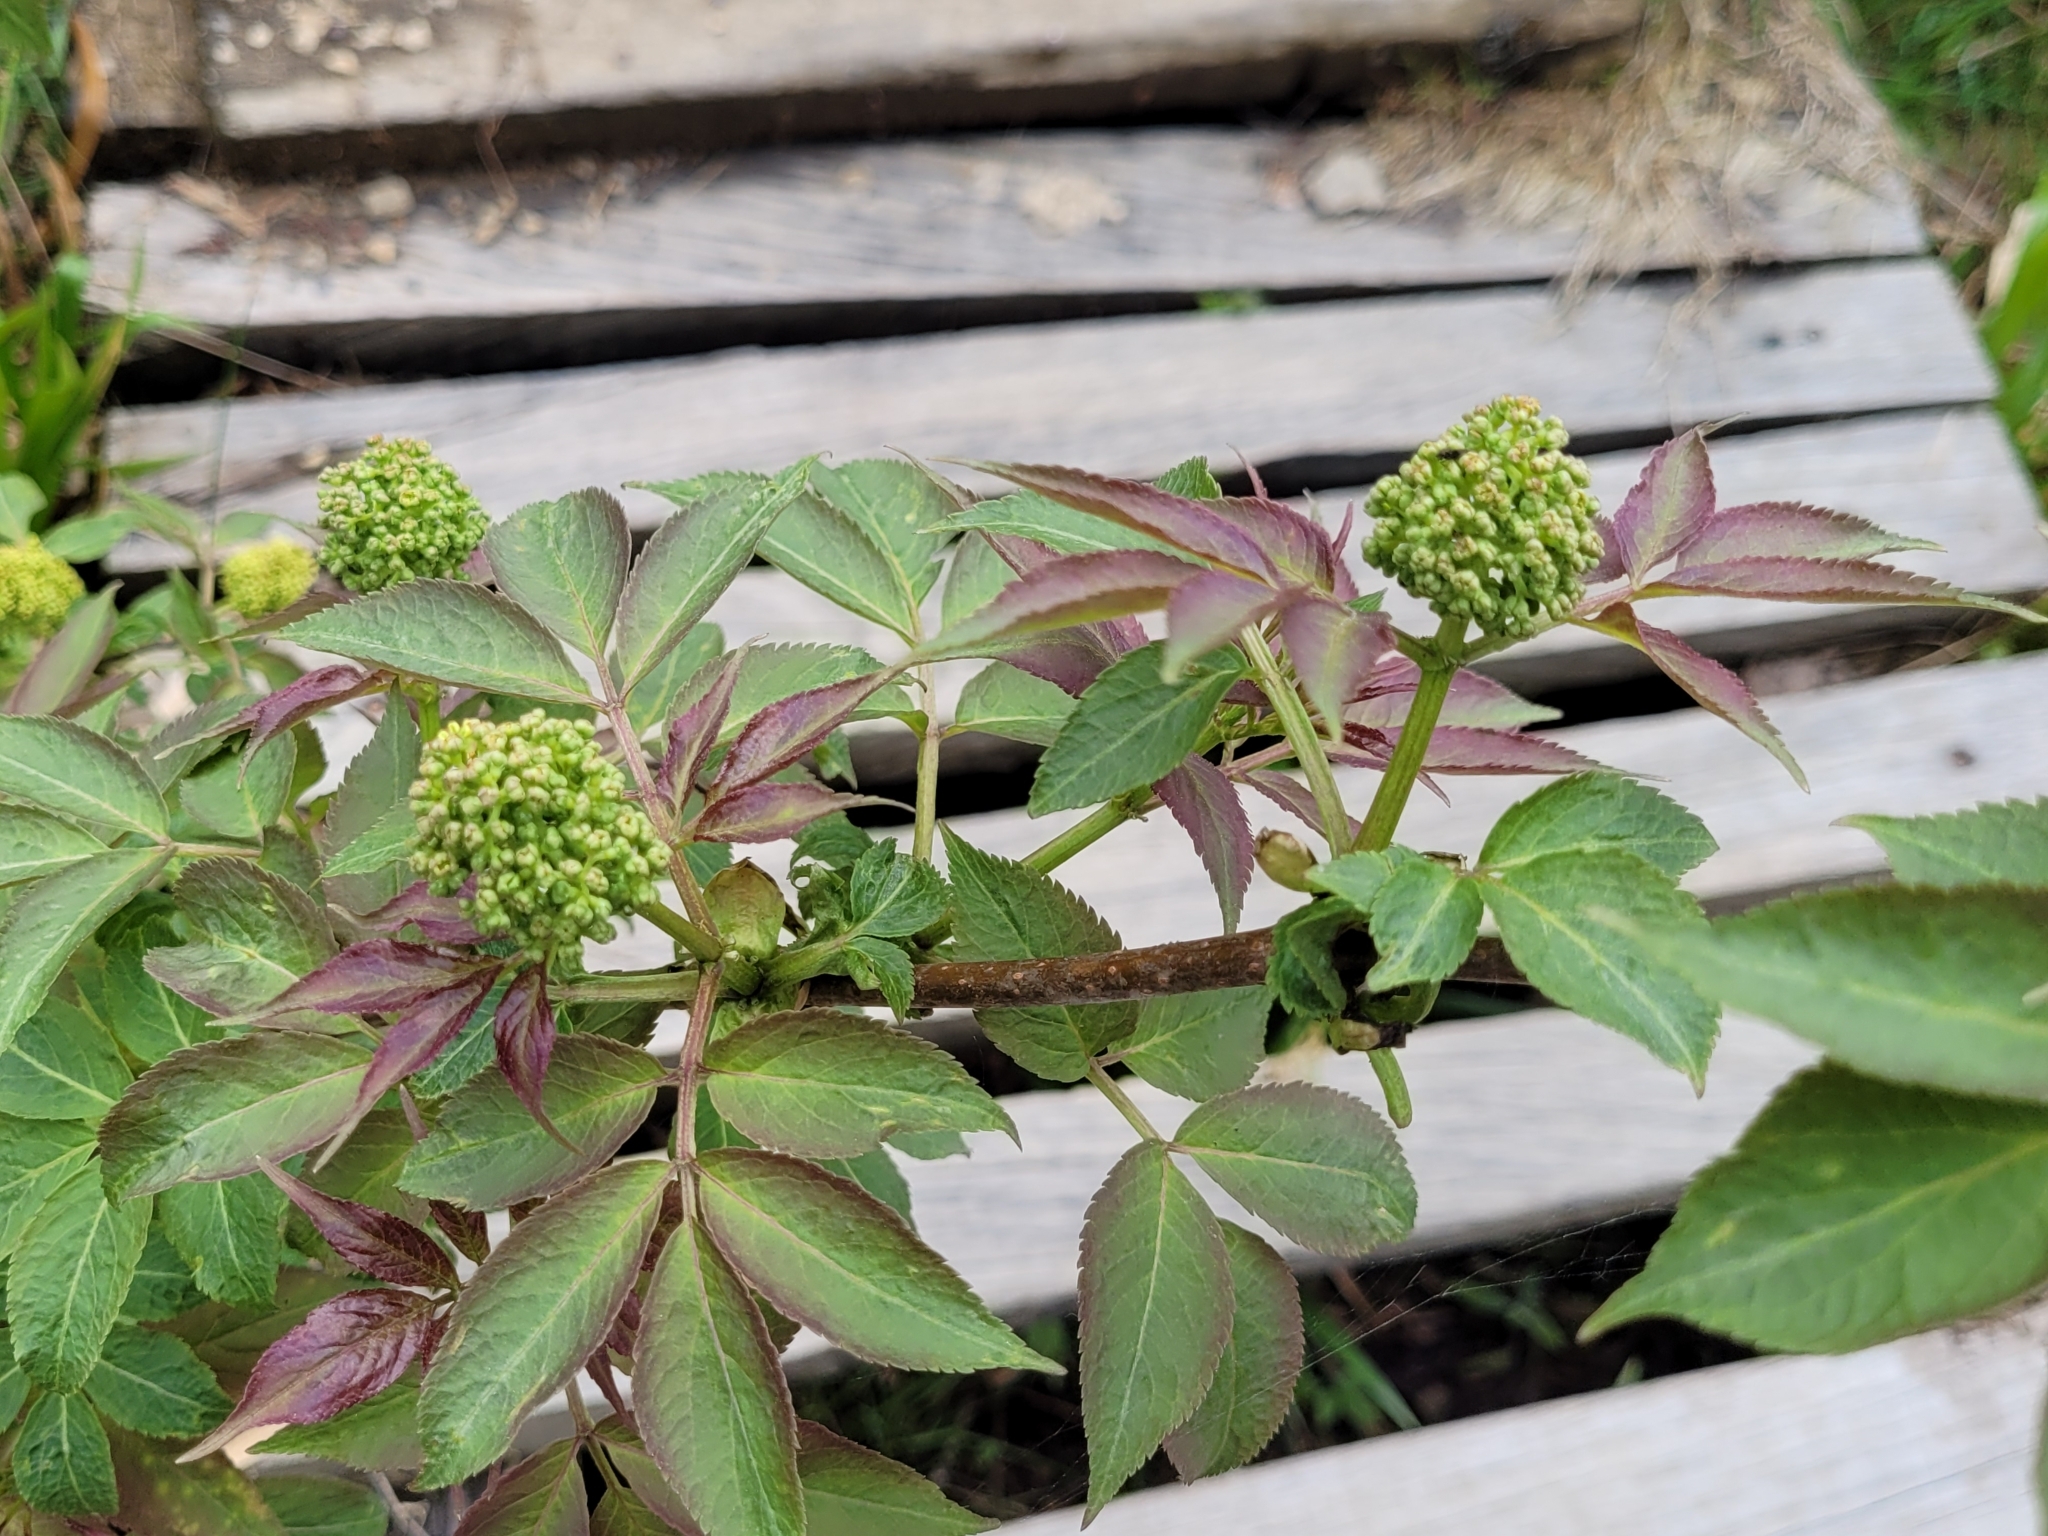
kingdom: Plantae
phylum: Tracheophyta
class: Magnoliopsida
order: Dipsacales
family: Viburnaceae
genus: Sambucus
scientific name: Sambucus racemosa
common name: Red-berried elder
